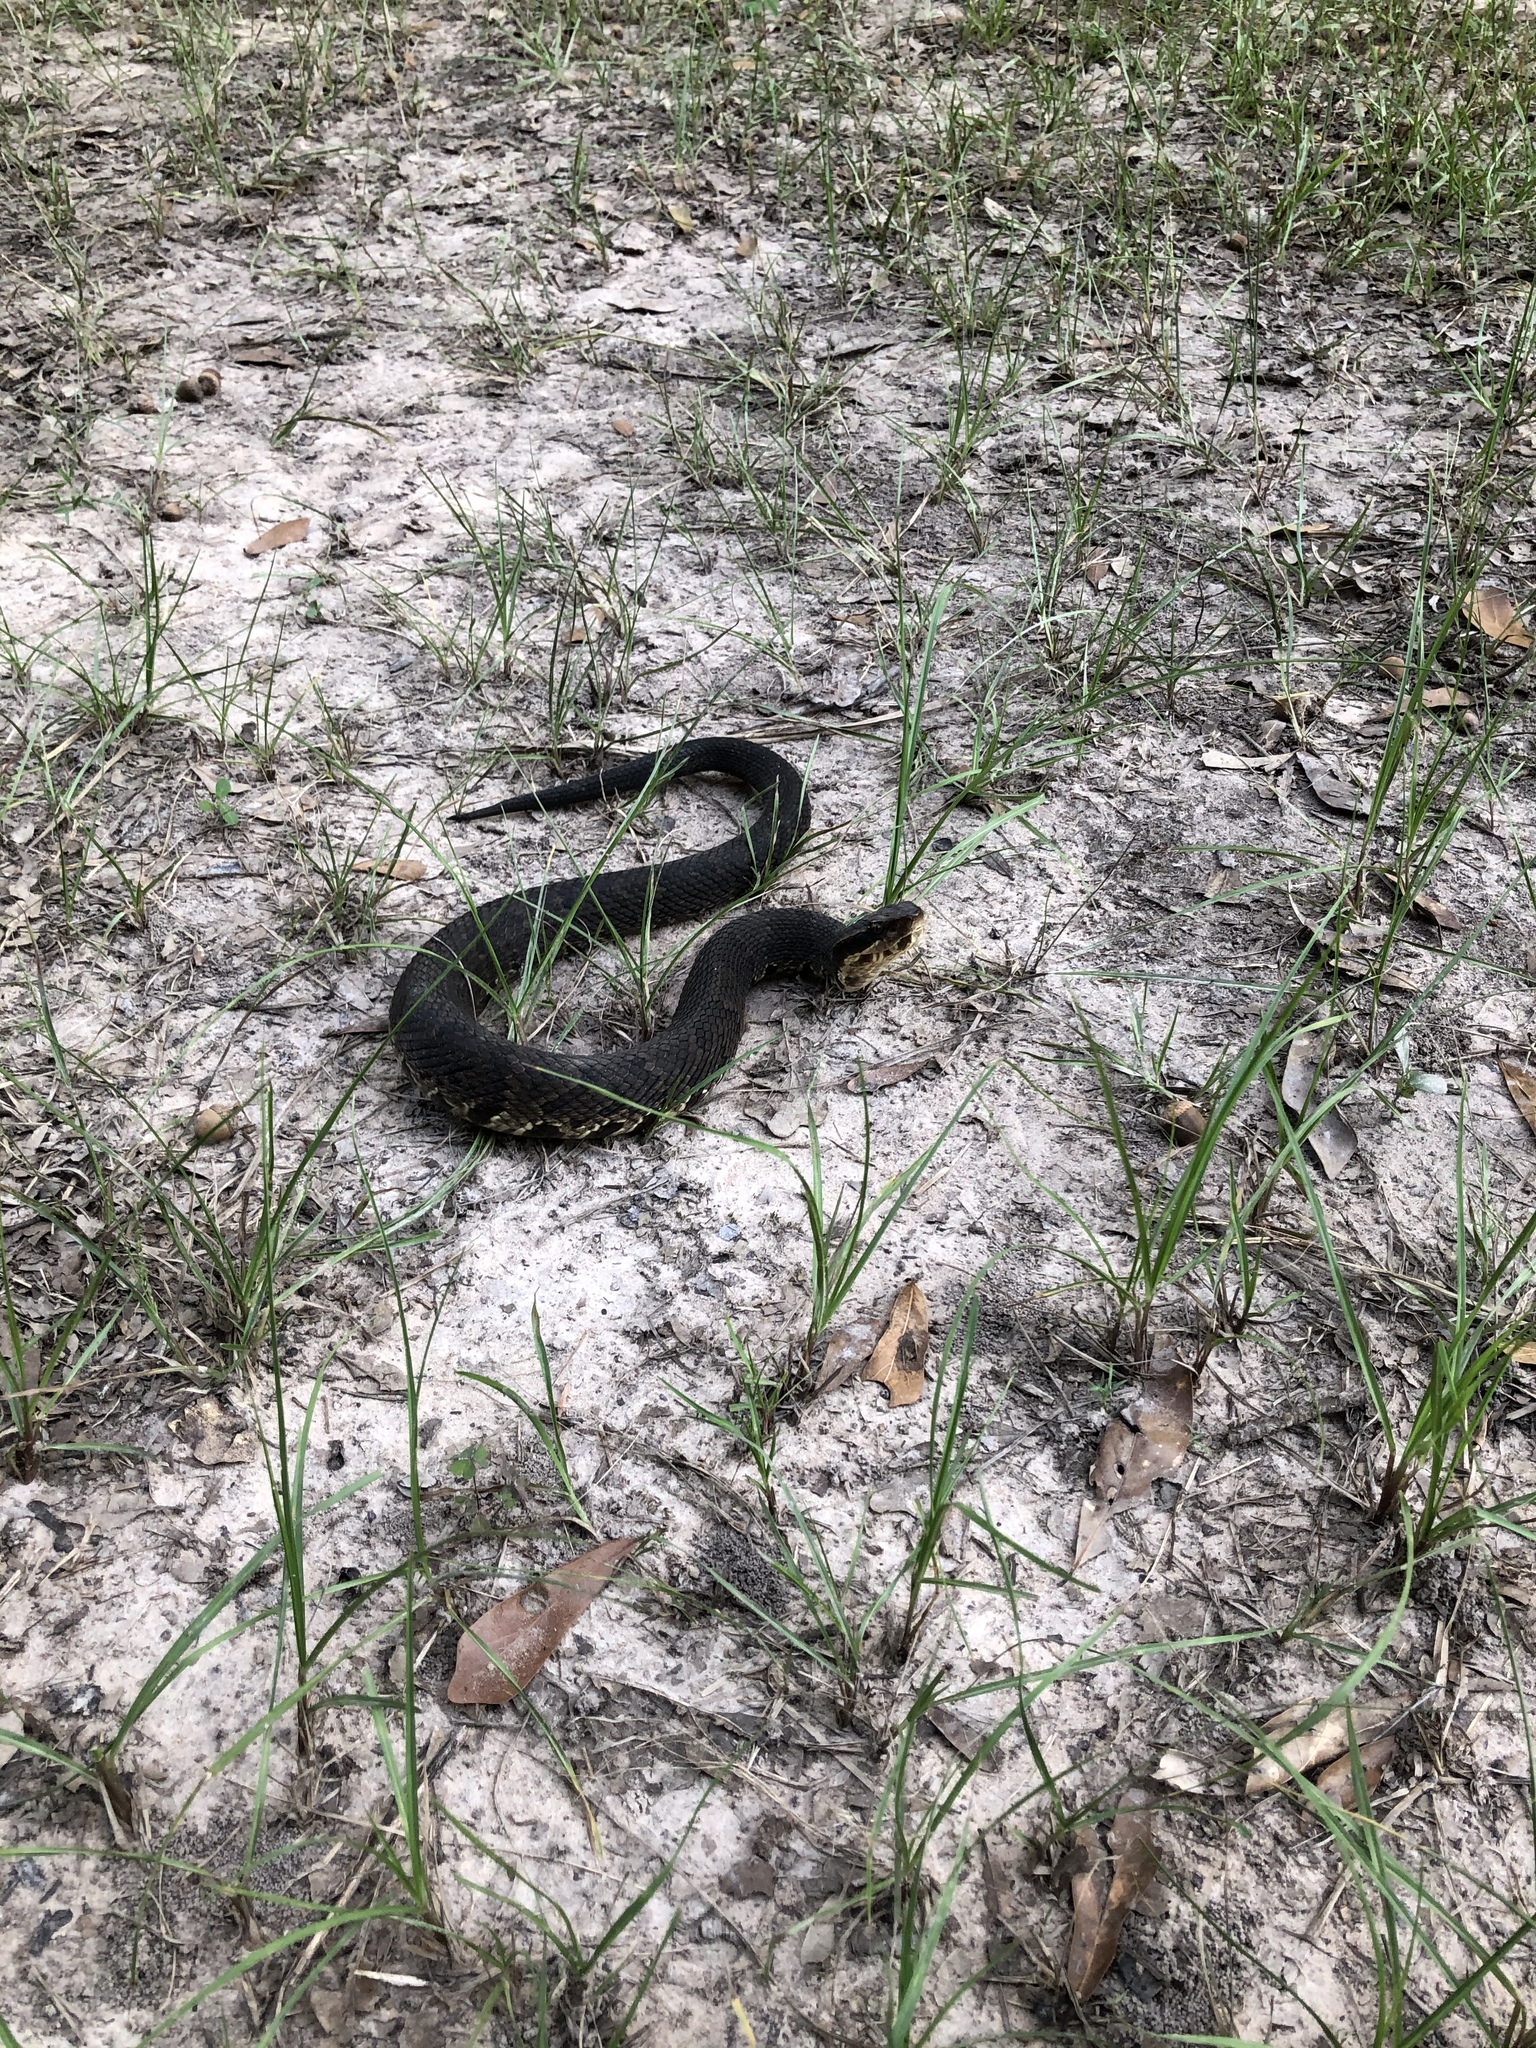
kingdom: Animalia
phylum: Chordata
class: Squamata
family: Viperidae
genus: Agkistrodon
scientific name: Agkistrodon piscivorus
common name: Cottonmouth
